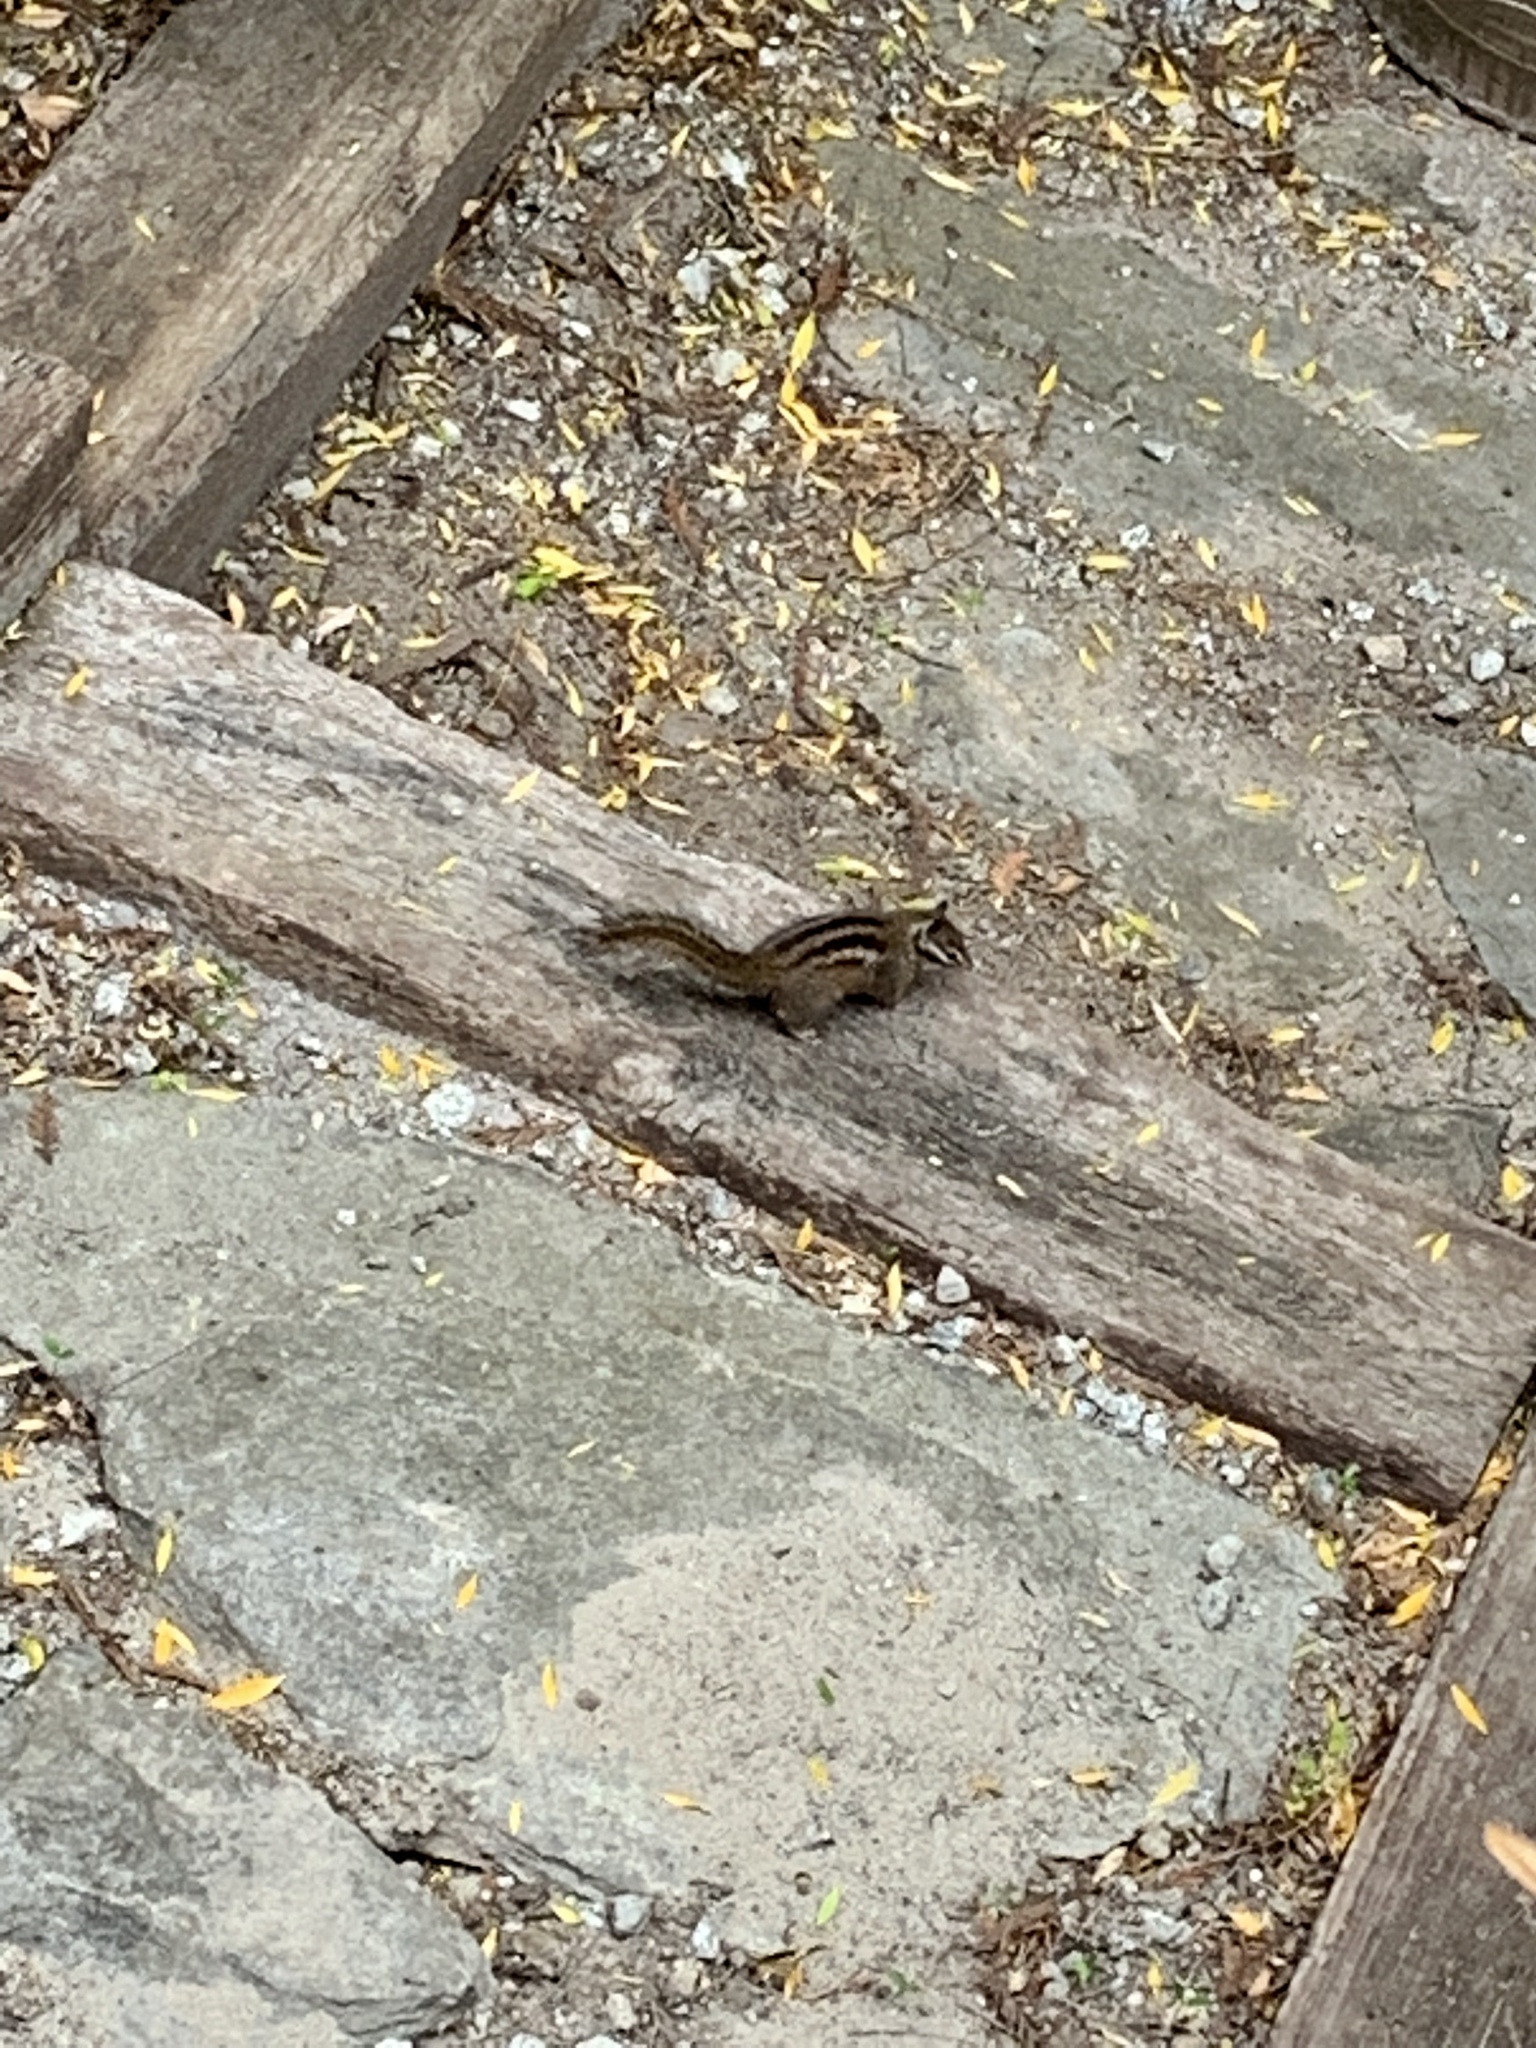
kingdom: Animalia
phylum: Chordata
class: Mammalia
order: Rodentia
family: Sciuridae
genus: Tamias
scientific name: Tamias merriami
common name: Merriam's chipmunk
